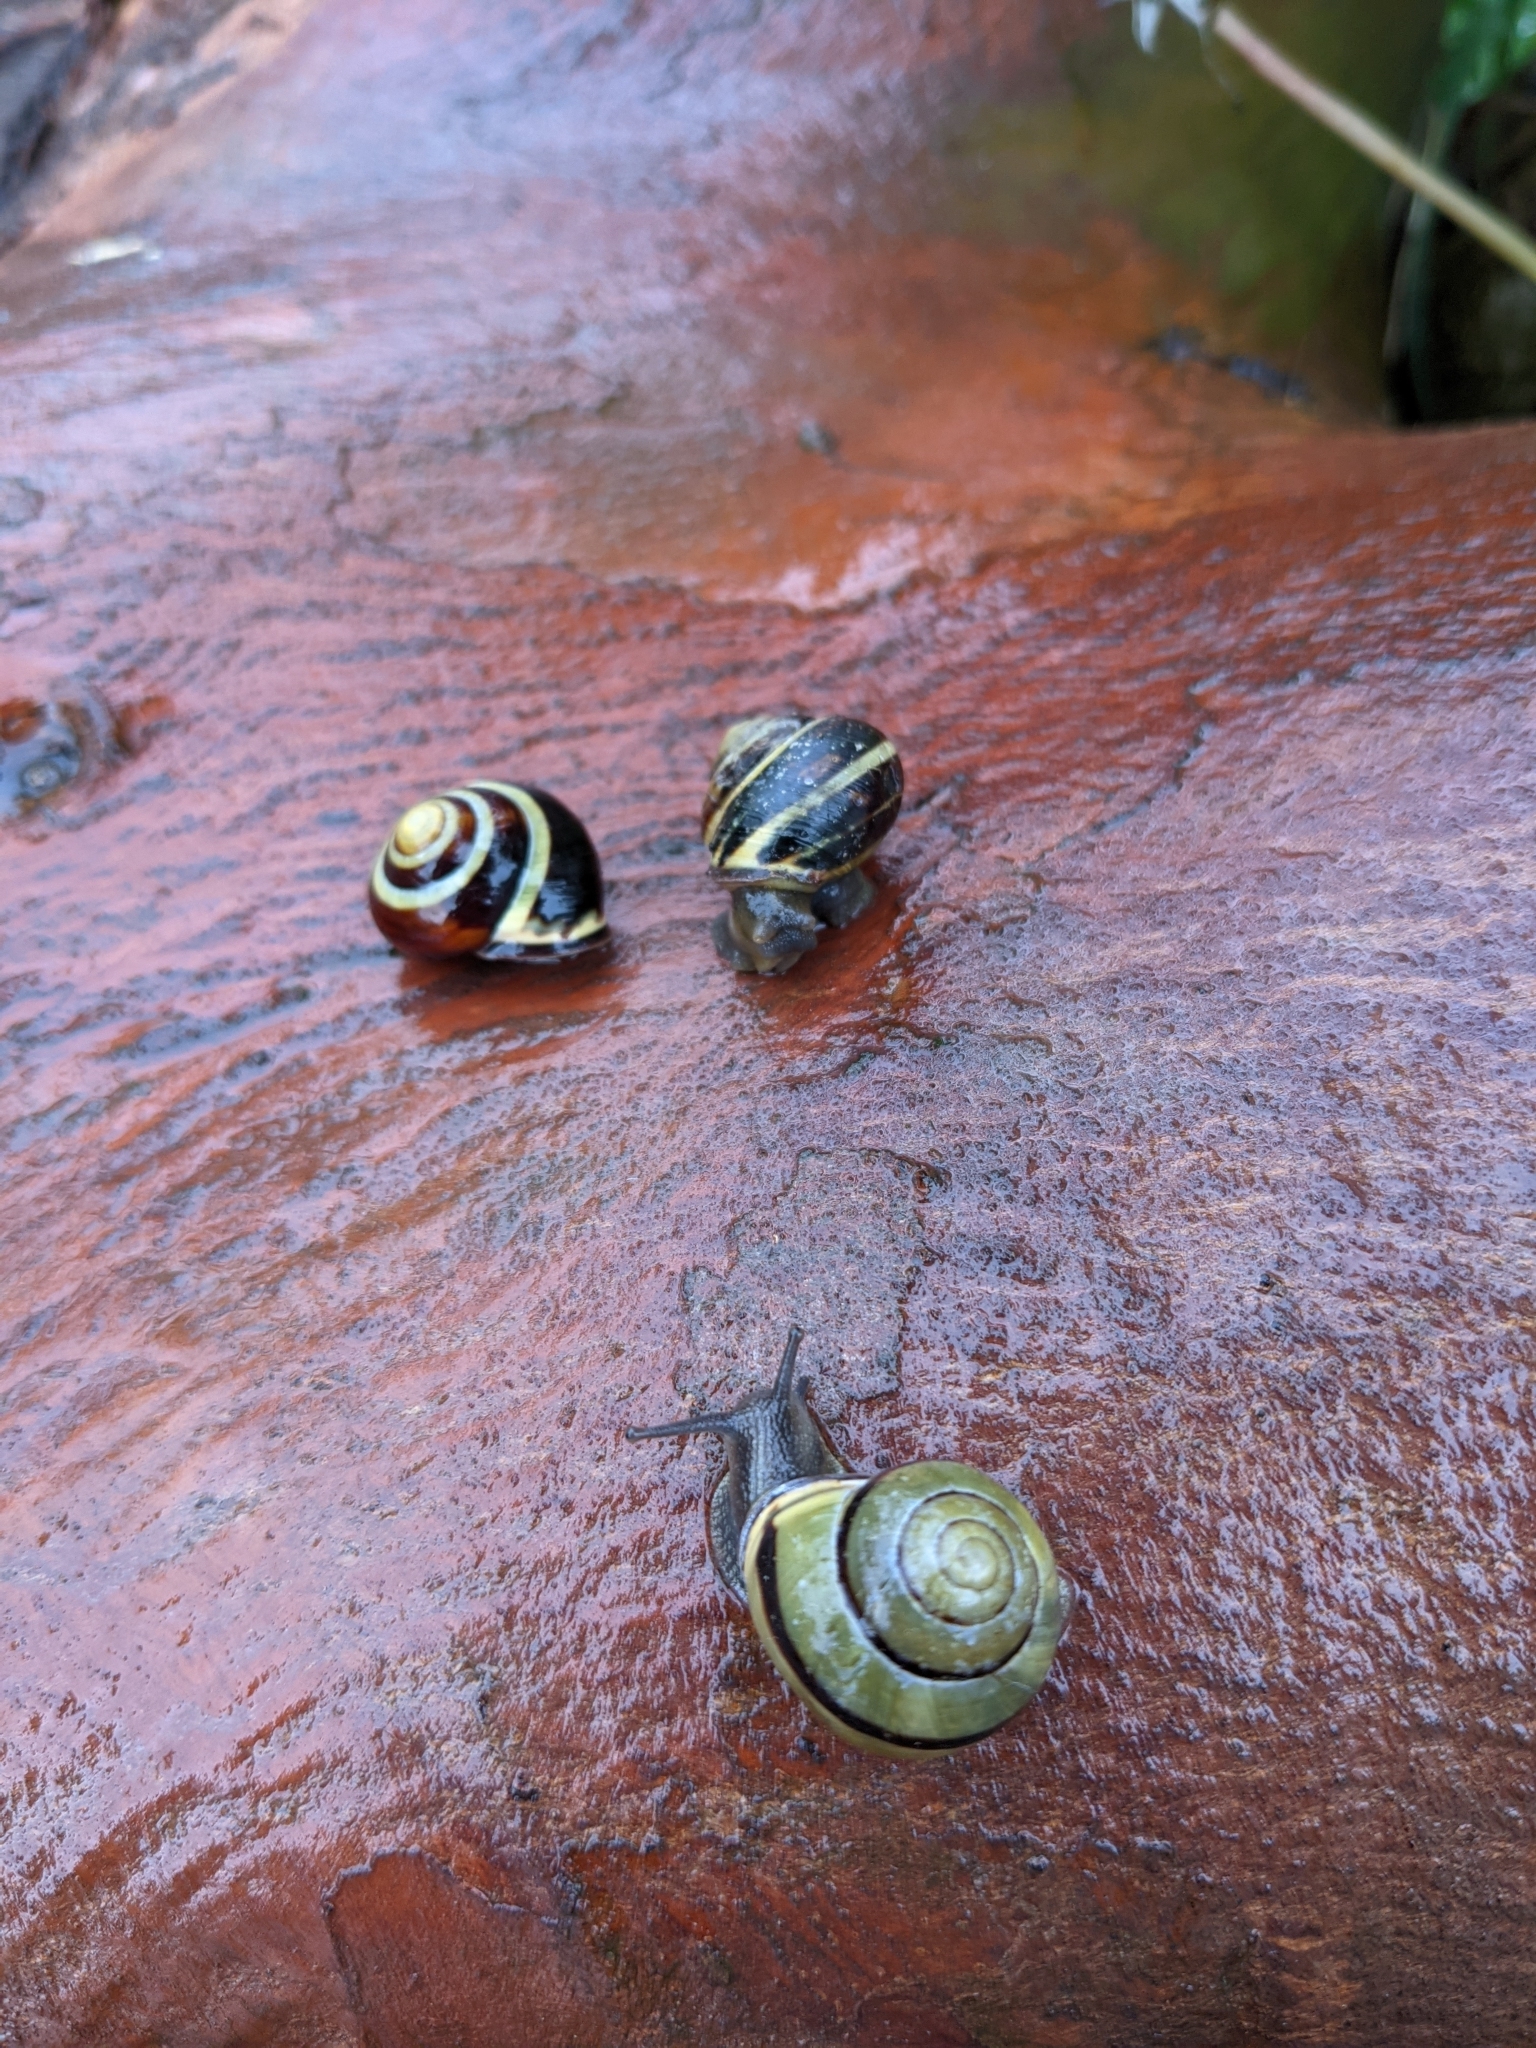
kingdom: Animalia
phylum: Mollusca
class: Gastropoda
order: Stylommatophora
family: Helicidae
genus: Cepaea
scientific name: Cepaea nemoralis
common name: Grovesnail
